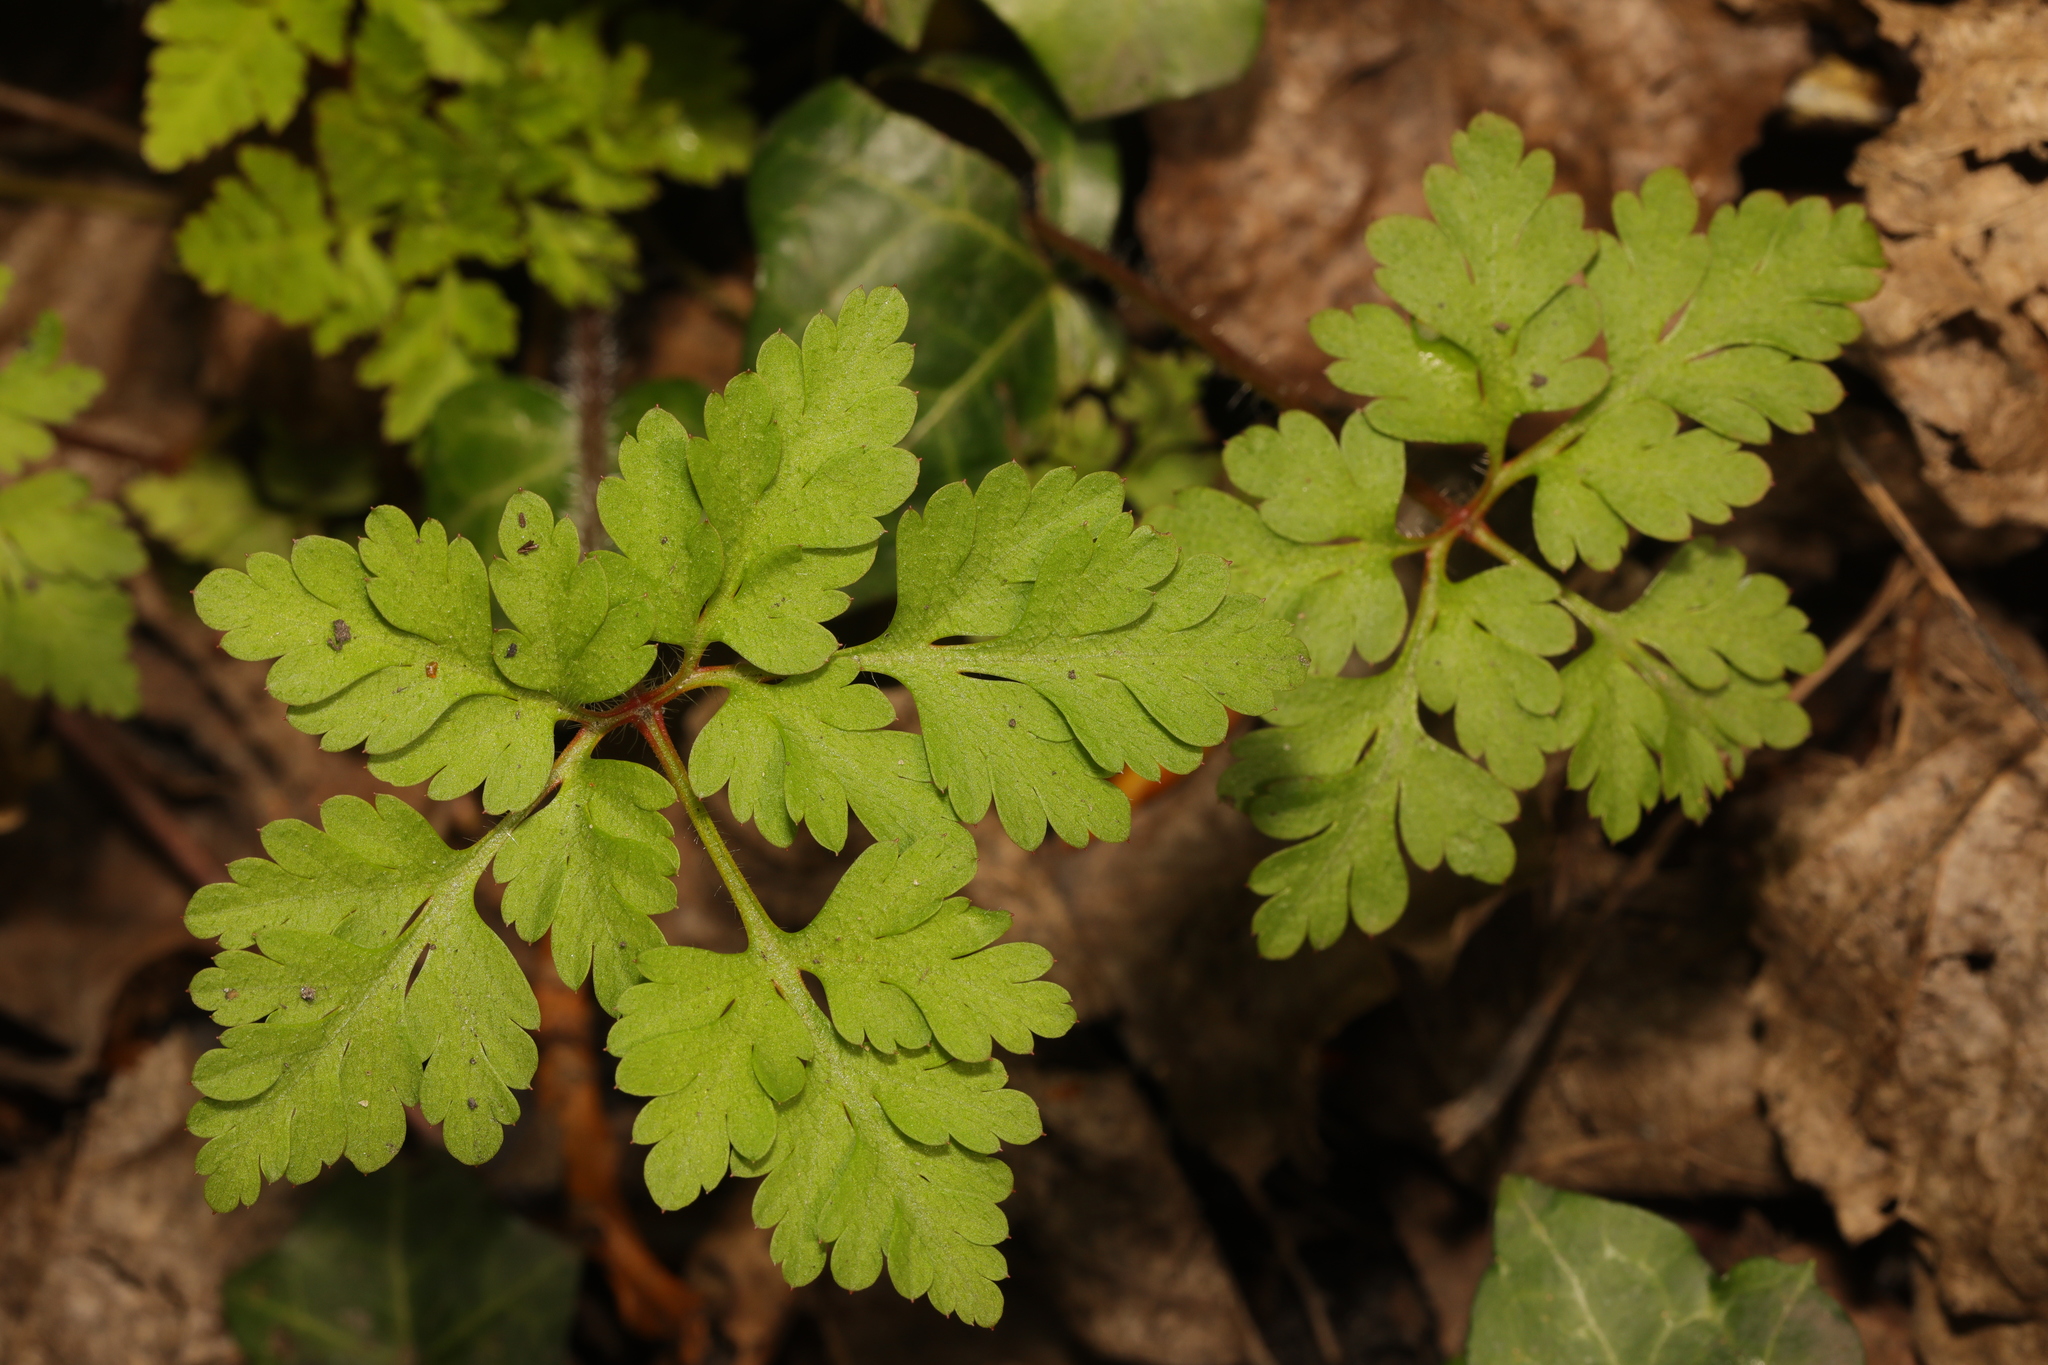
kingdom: Plantae
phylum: Tracheophyta
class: Magnoliopsida
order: Geraniales
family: Geraniaceae
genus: Geranium
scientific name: Geranium robertianum
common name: Herb-robert
